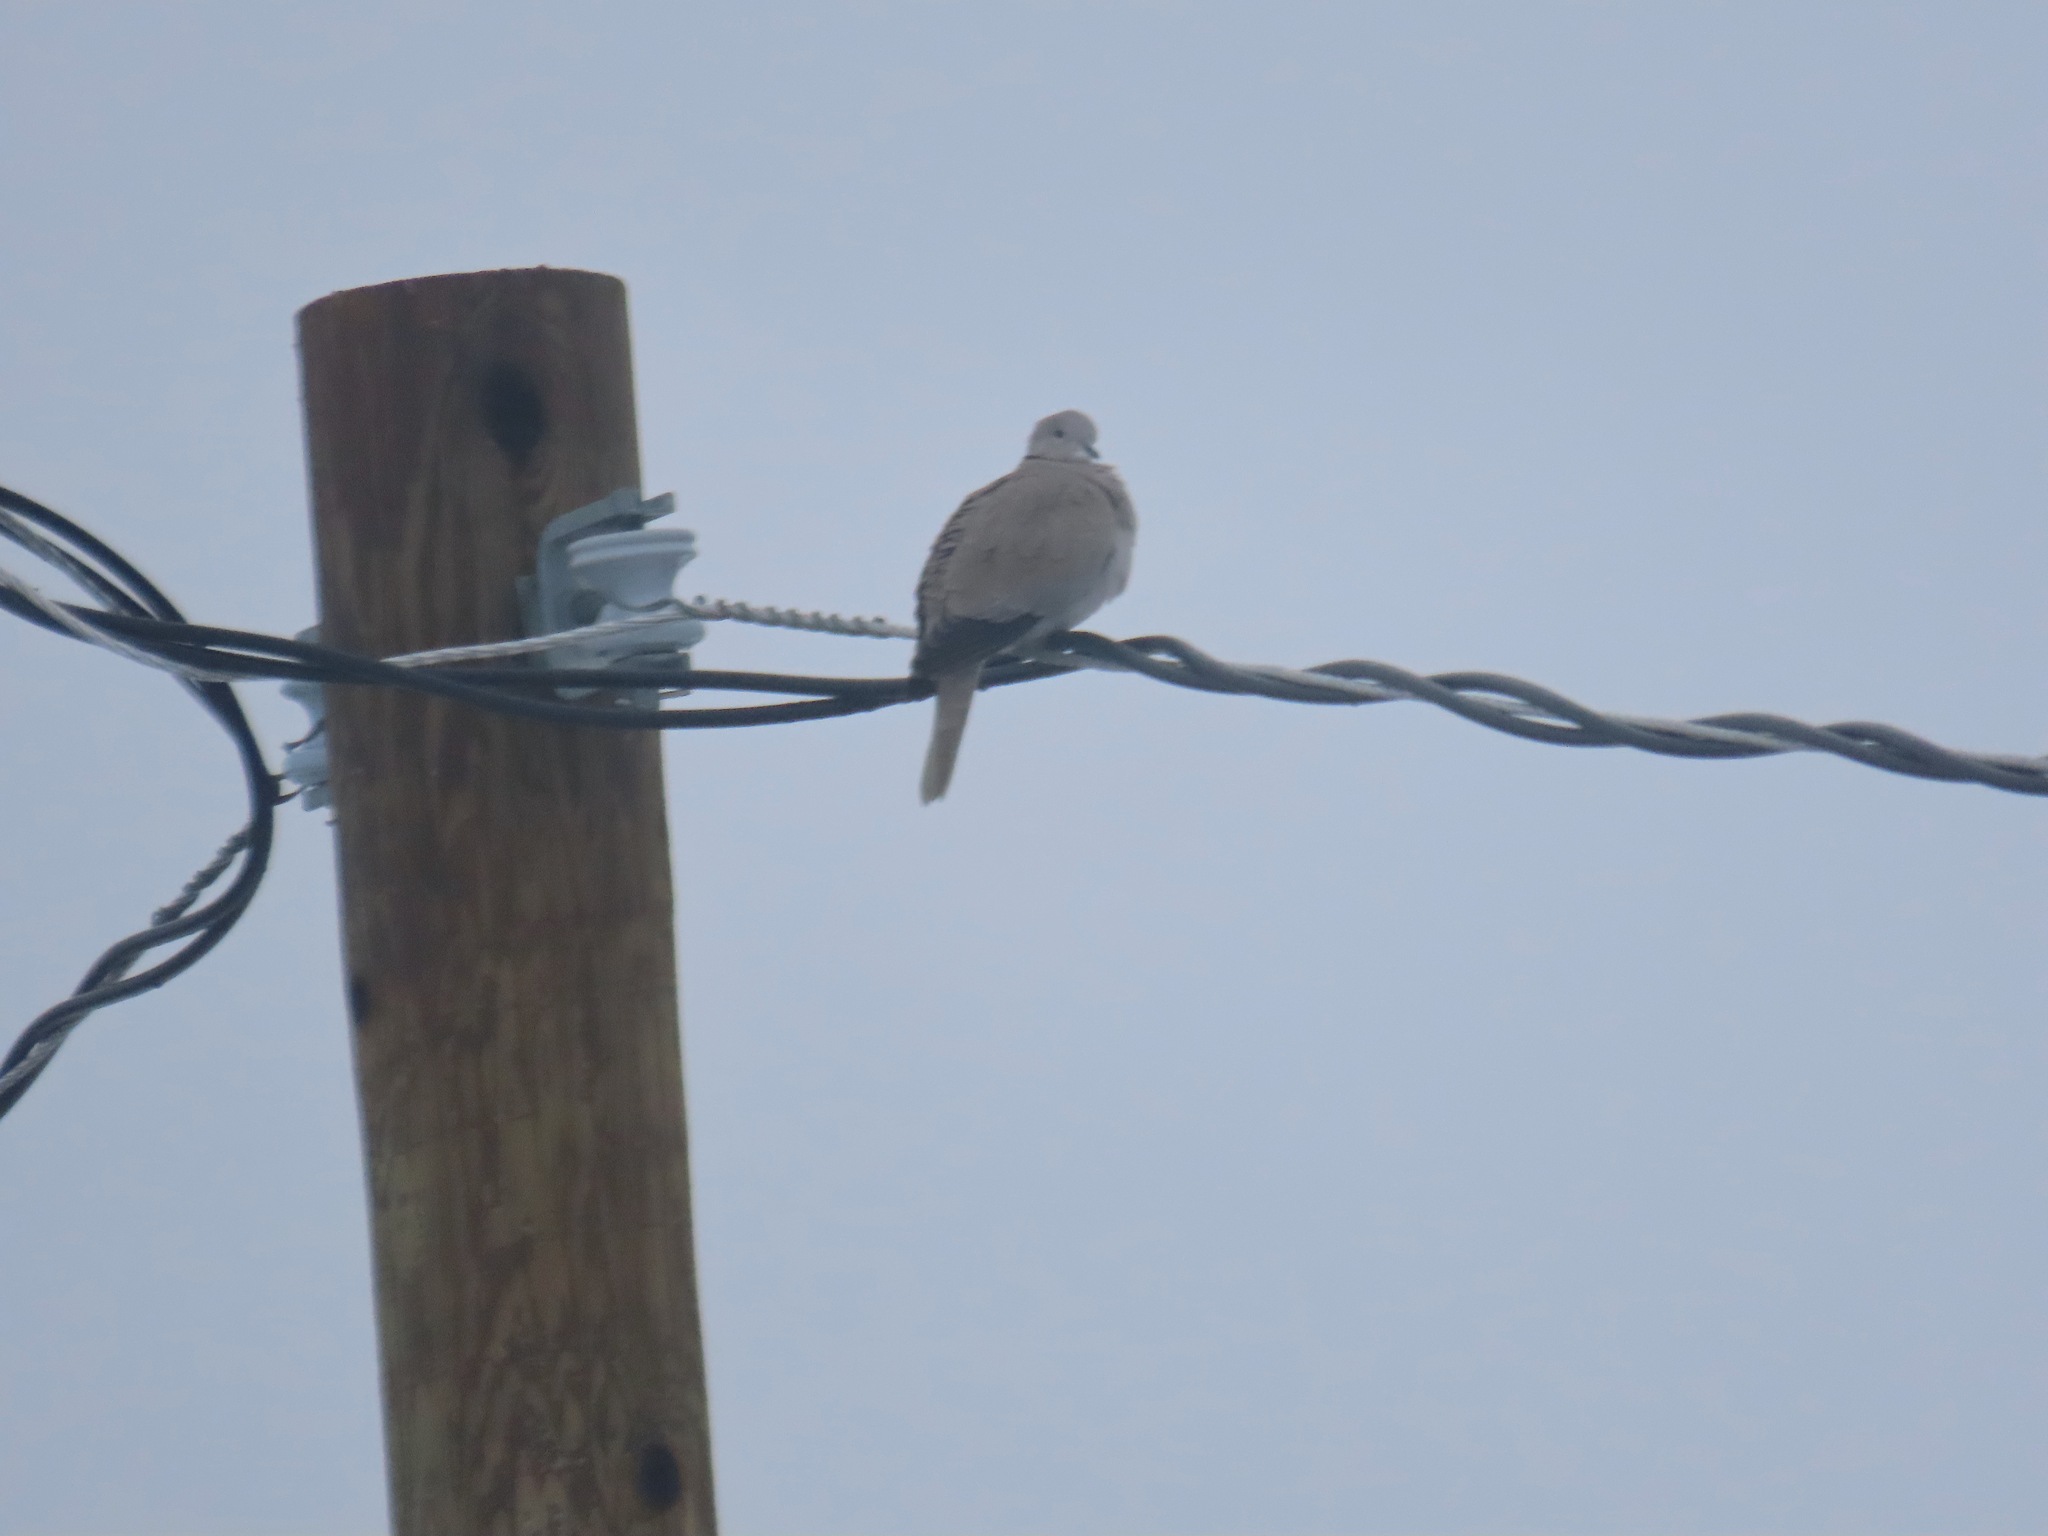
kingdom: Animalia
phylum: Chordata
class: Aves
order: Columbiformes
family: Columbidae
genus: Streptopelia
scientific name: Streptopelia decaocto
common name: Eurasian collared dove
